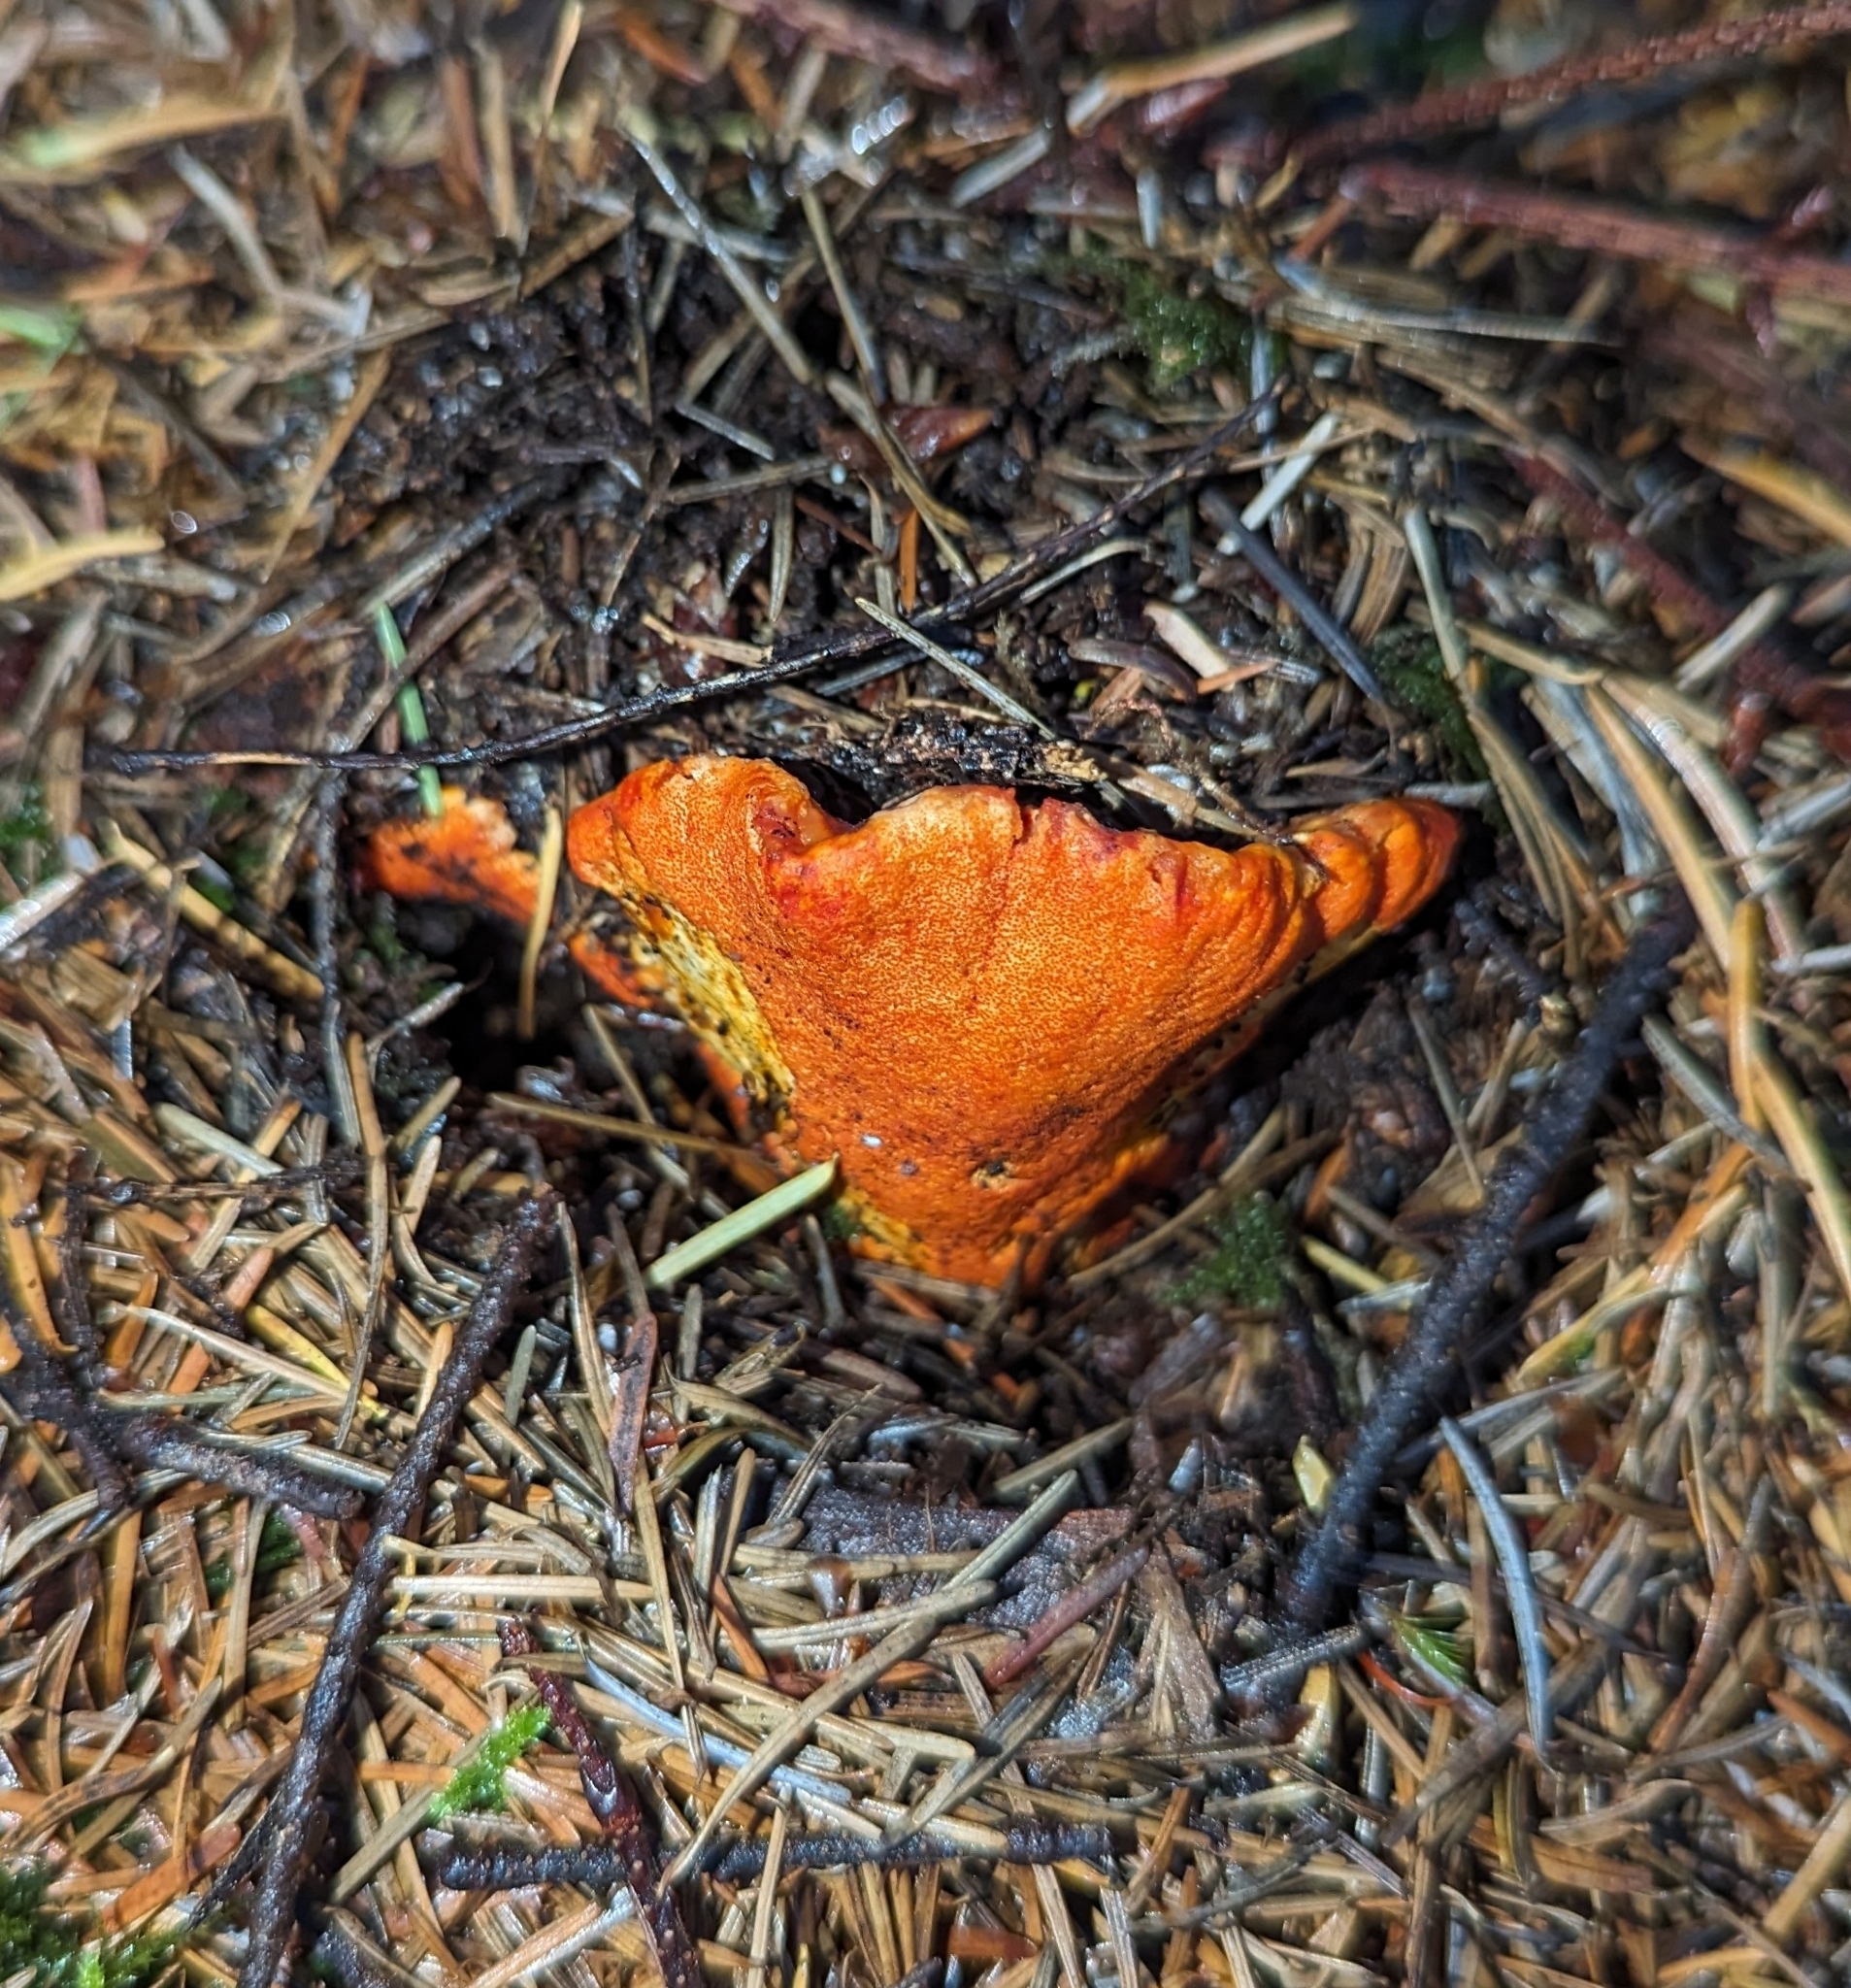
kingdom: Fungi
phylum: Ascomycota
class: Sordariomycetes
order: Hypocreales
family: Hypocreaceae
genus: Hypomyces
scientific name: Hypomyces lactifluorum
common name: Lobster mushroom
